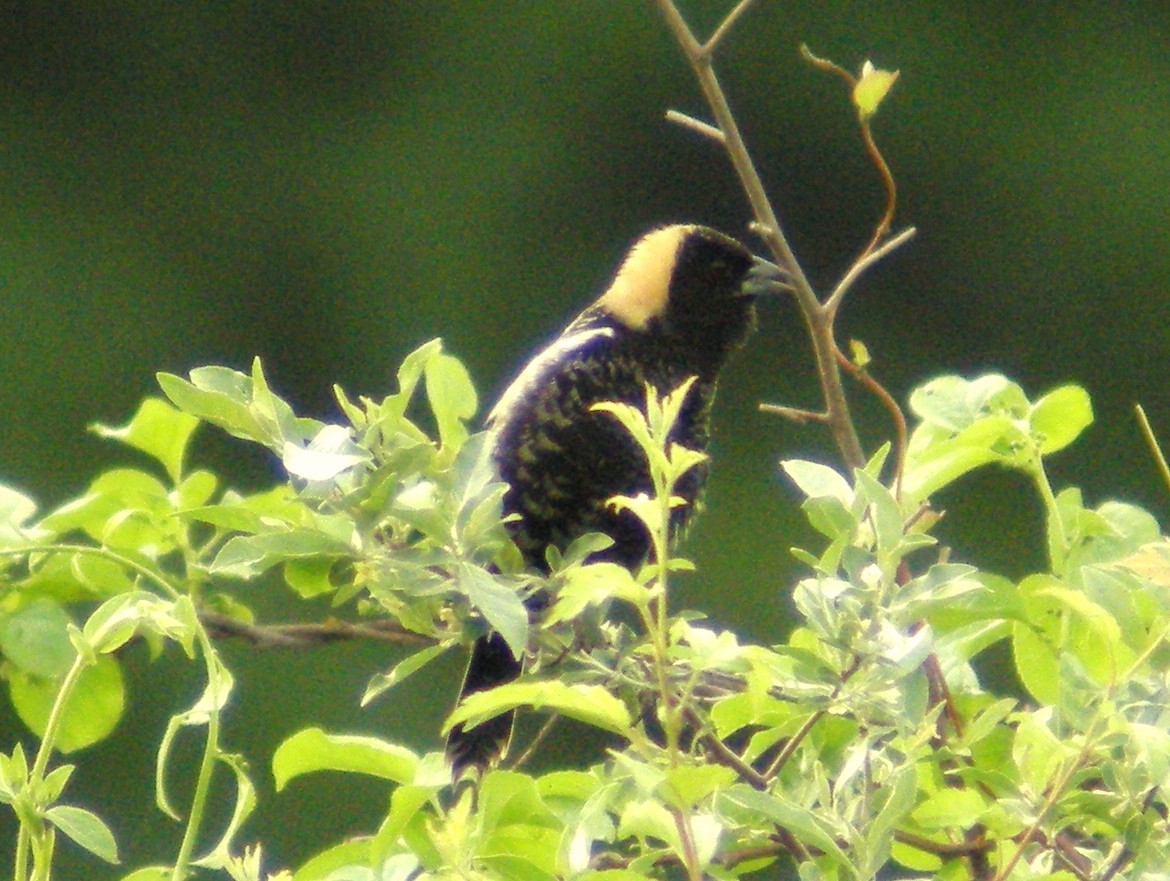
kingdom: Animalia
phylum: Chordata
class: Aves
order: Passeriformes
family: Icteridae
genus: Dolichonyx
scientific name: Dolichonyx oryzivorus
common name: Bobolink
